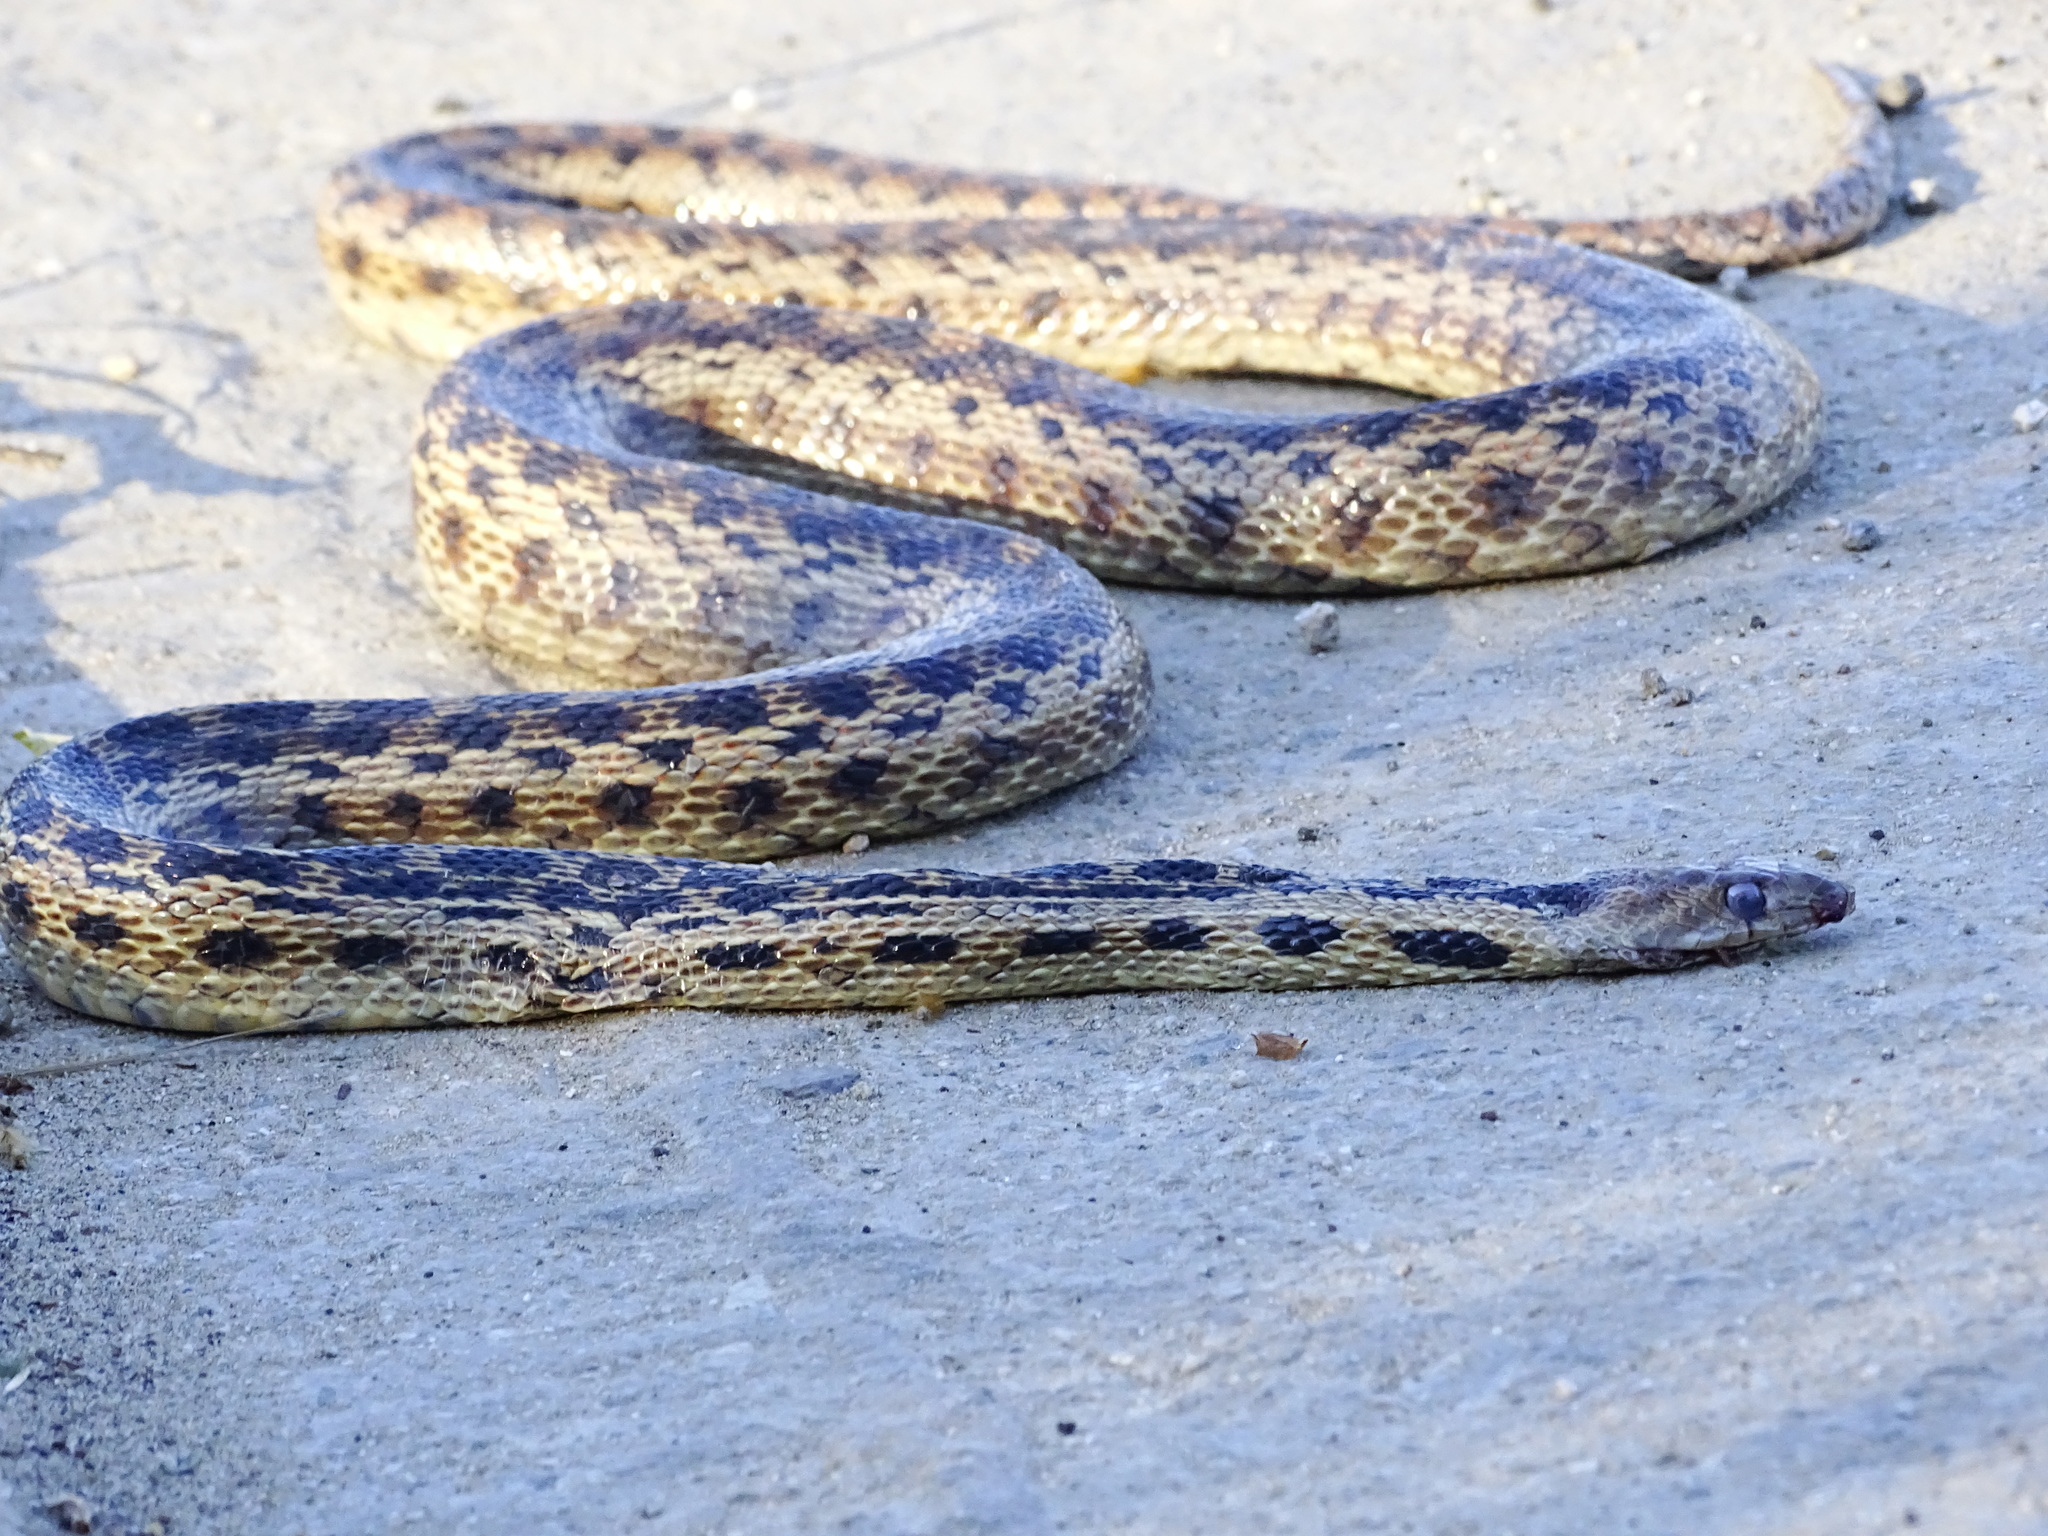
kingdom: Animalia
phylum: Chordata
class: Squamata
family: Colubridae
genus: Pituophis
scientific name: Pituophis catenifer
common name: Gopher snake
